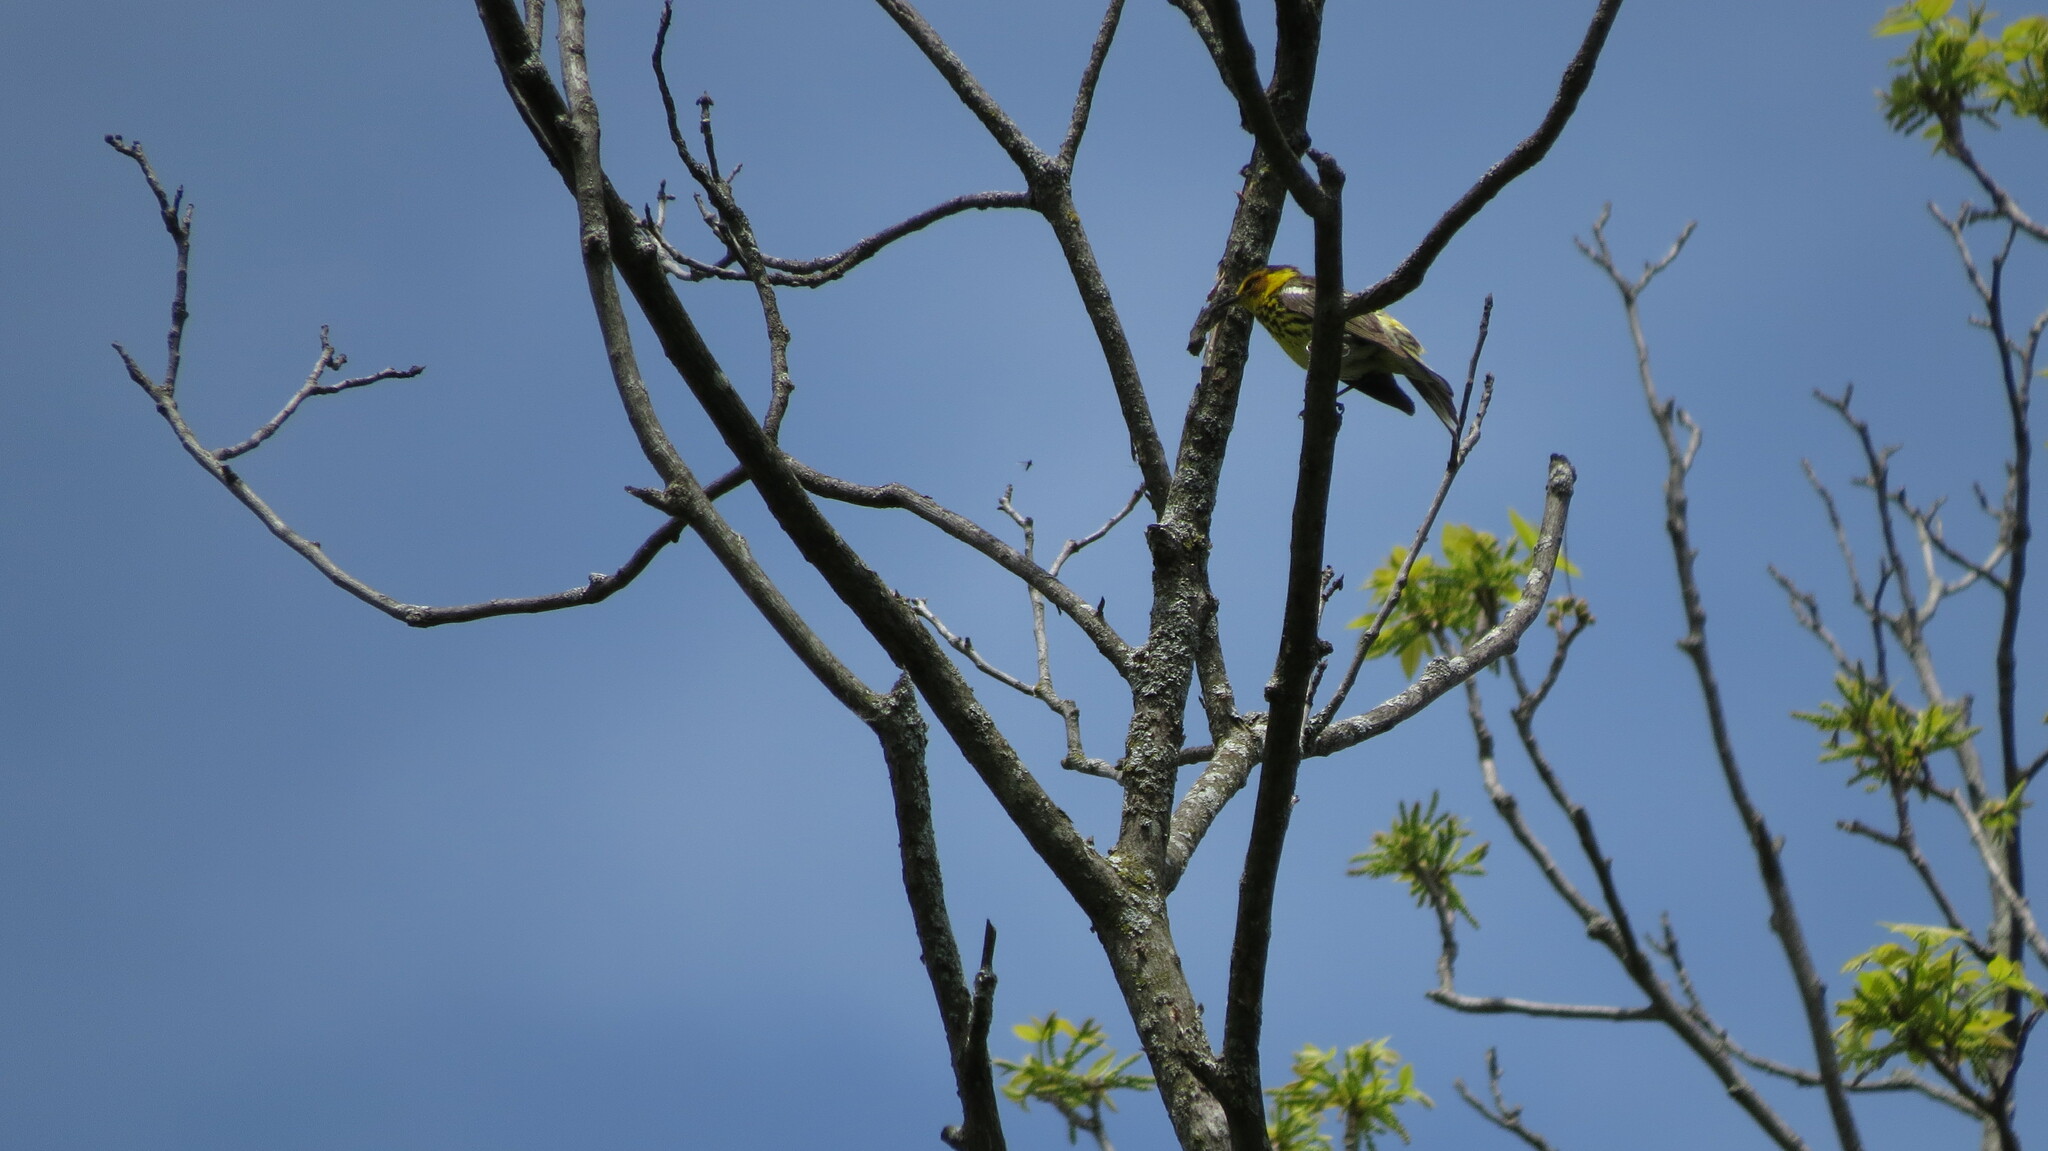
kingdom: Animalia
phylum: Chordata
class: Aves
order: Passeriformes
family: Parulidae
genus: Setophaga
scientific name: Setophaga tigrina
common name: Cape may warbler
